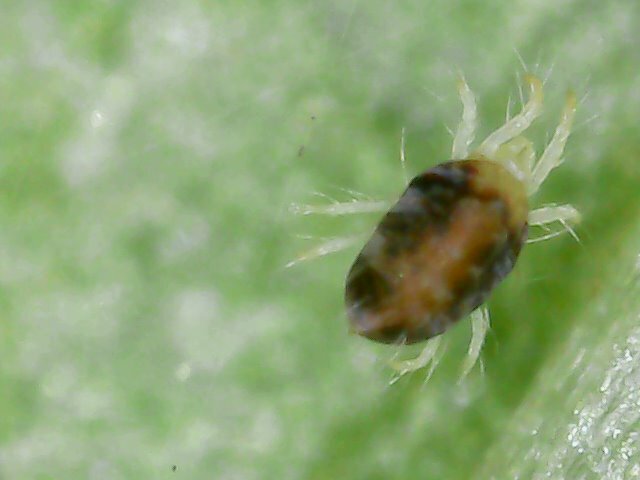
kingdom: Animalia
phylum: Arthropoda
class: Arachnida
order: Trombidiformes
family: Tetranychidae
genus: Tetranychus
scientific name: Tetranychus urticae
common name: Carmine spider mite
